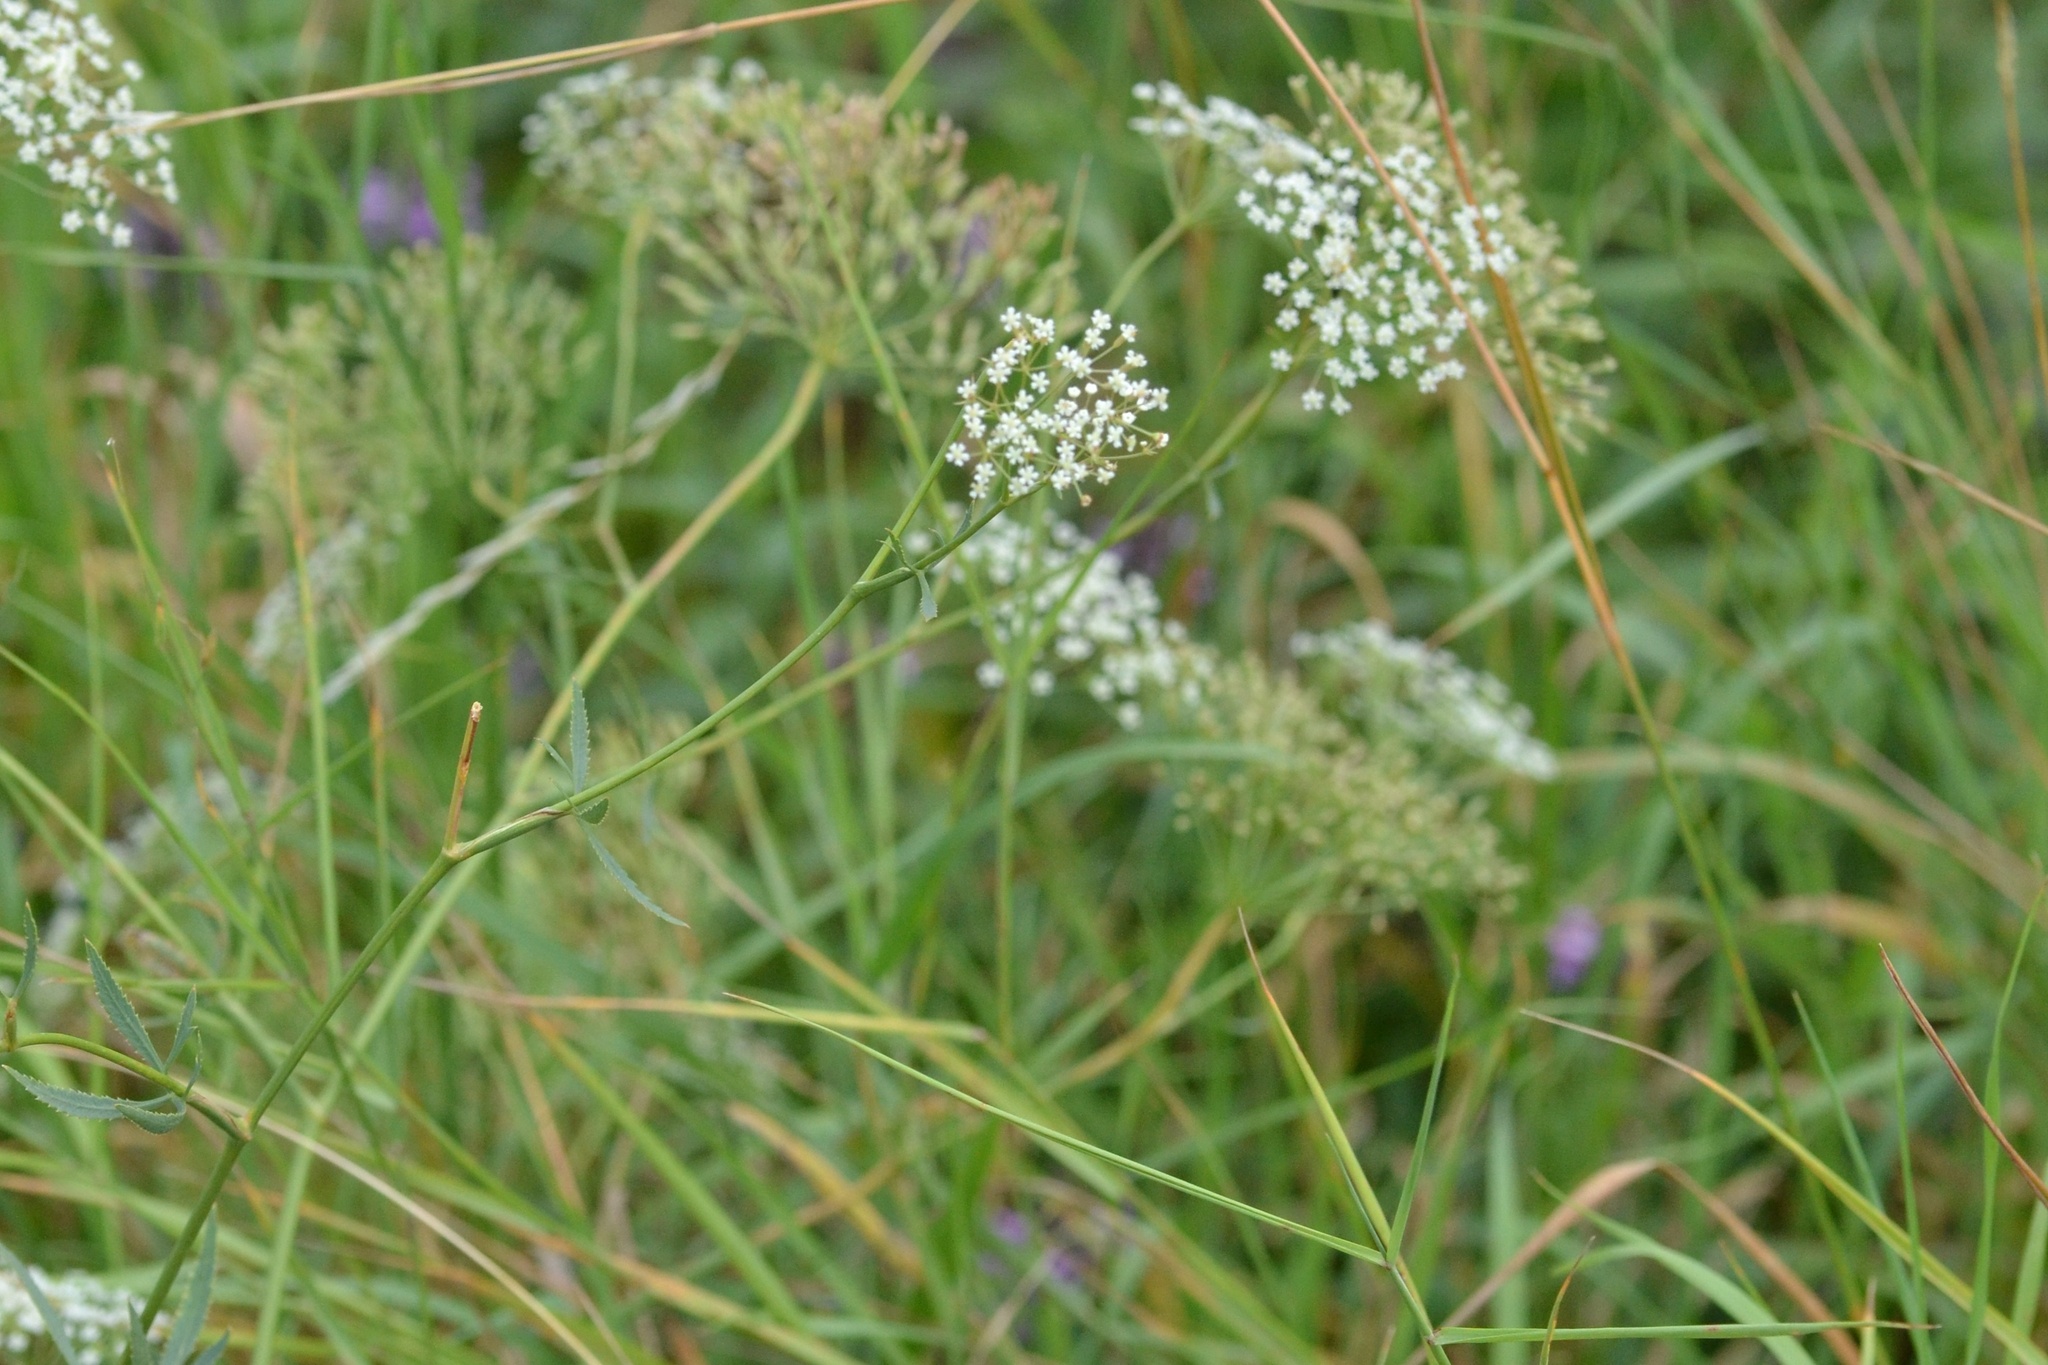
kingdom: Plantae
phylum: Tracheophyta
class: Magnoliopsida
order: Apiales
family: Apiaceae
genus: Falcaria
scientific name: Falcaria vulgaris
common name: Longleaf
